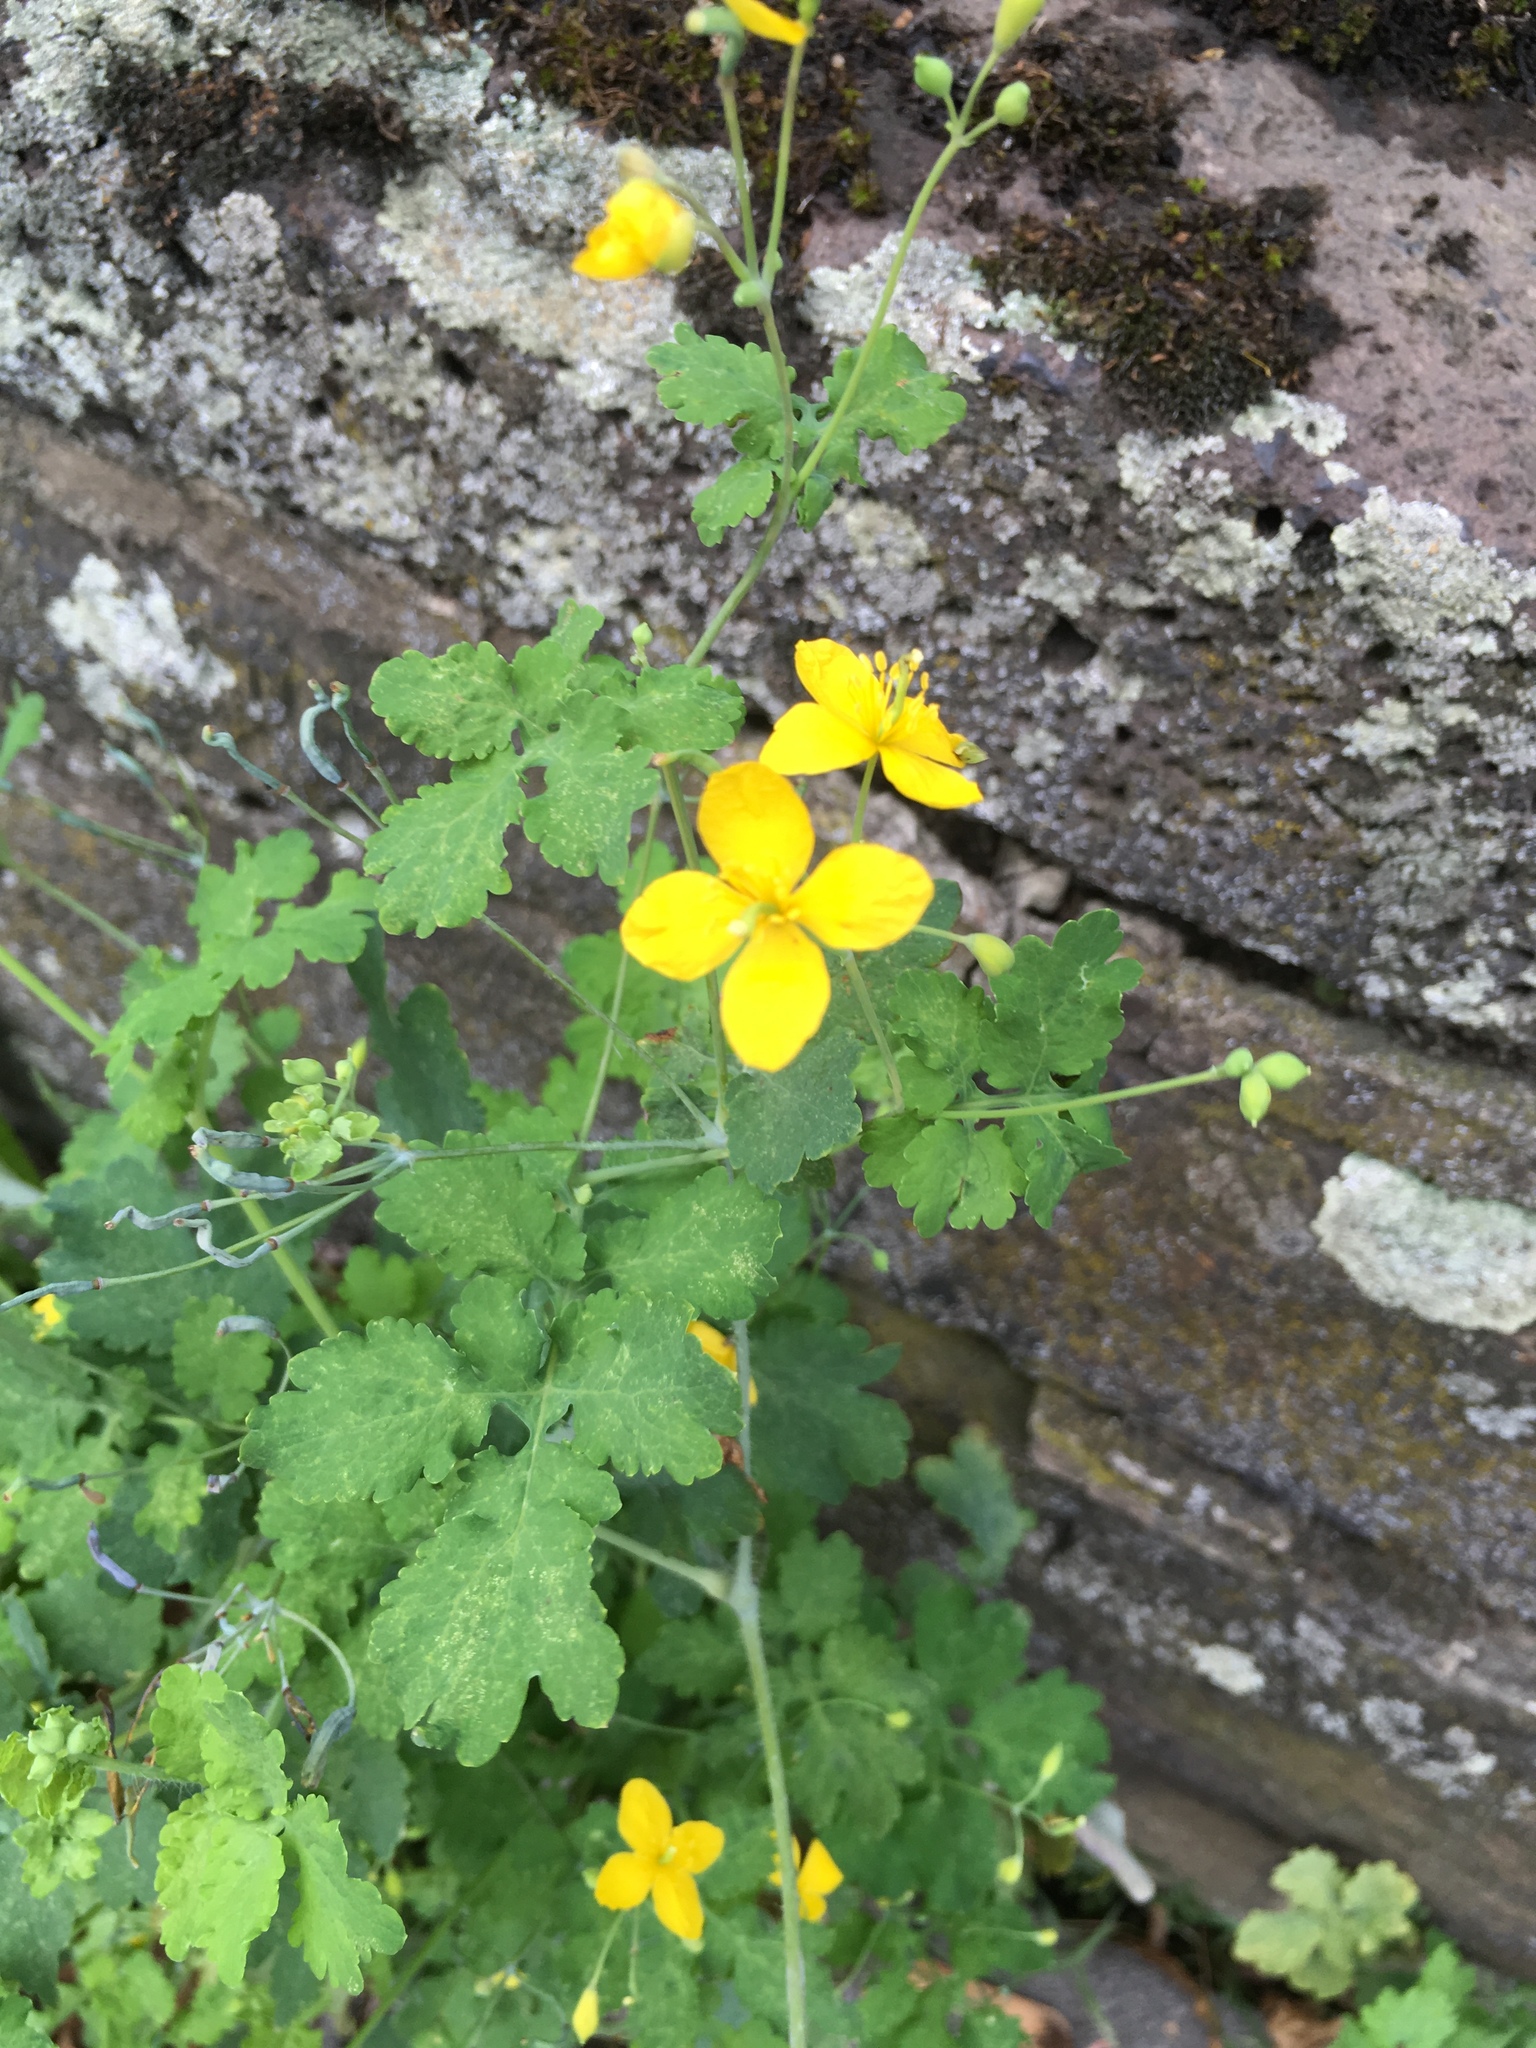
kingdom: Plantae
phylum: Tracheophyta
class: Magnoliopsida
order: Ranunculales
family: Papaveraceae
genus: Chelidonium
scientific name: Chelidonium majus
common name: Greater celandine
